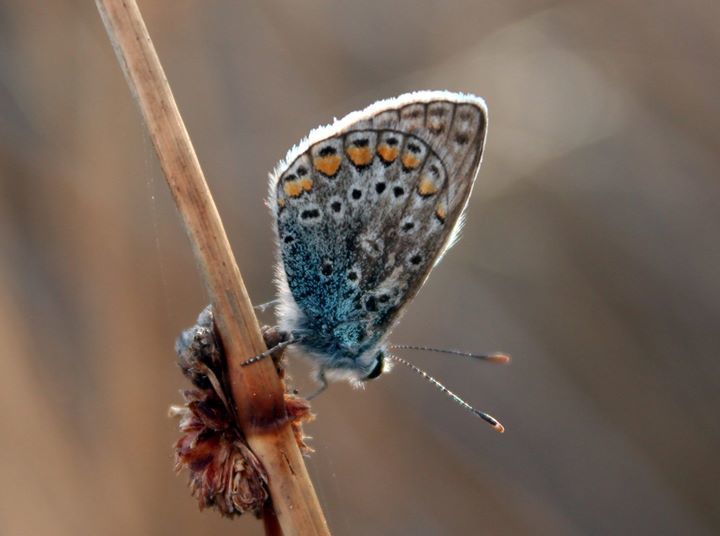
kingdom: Animalia
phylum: Arthropoda
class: Insecta
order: Lepidoptera
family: Lycaenidae
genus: Polyommatus
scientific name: Polyommatus icarus
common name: Common blue
